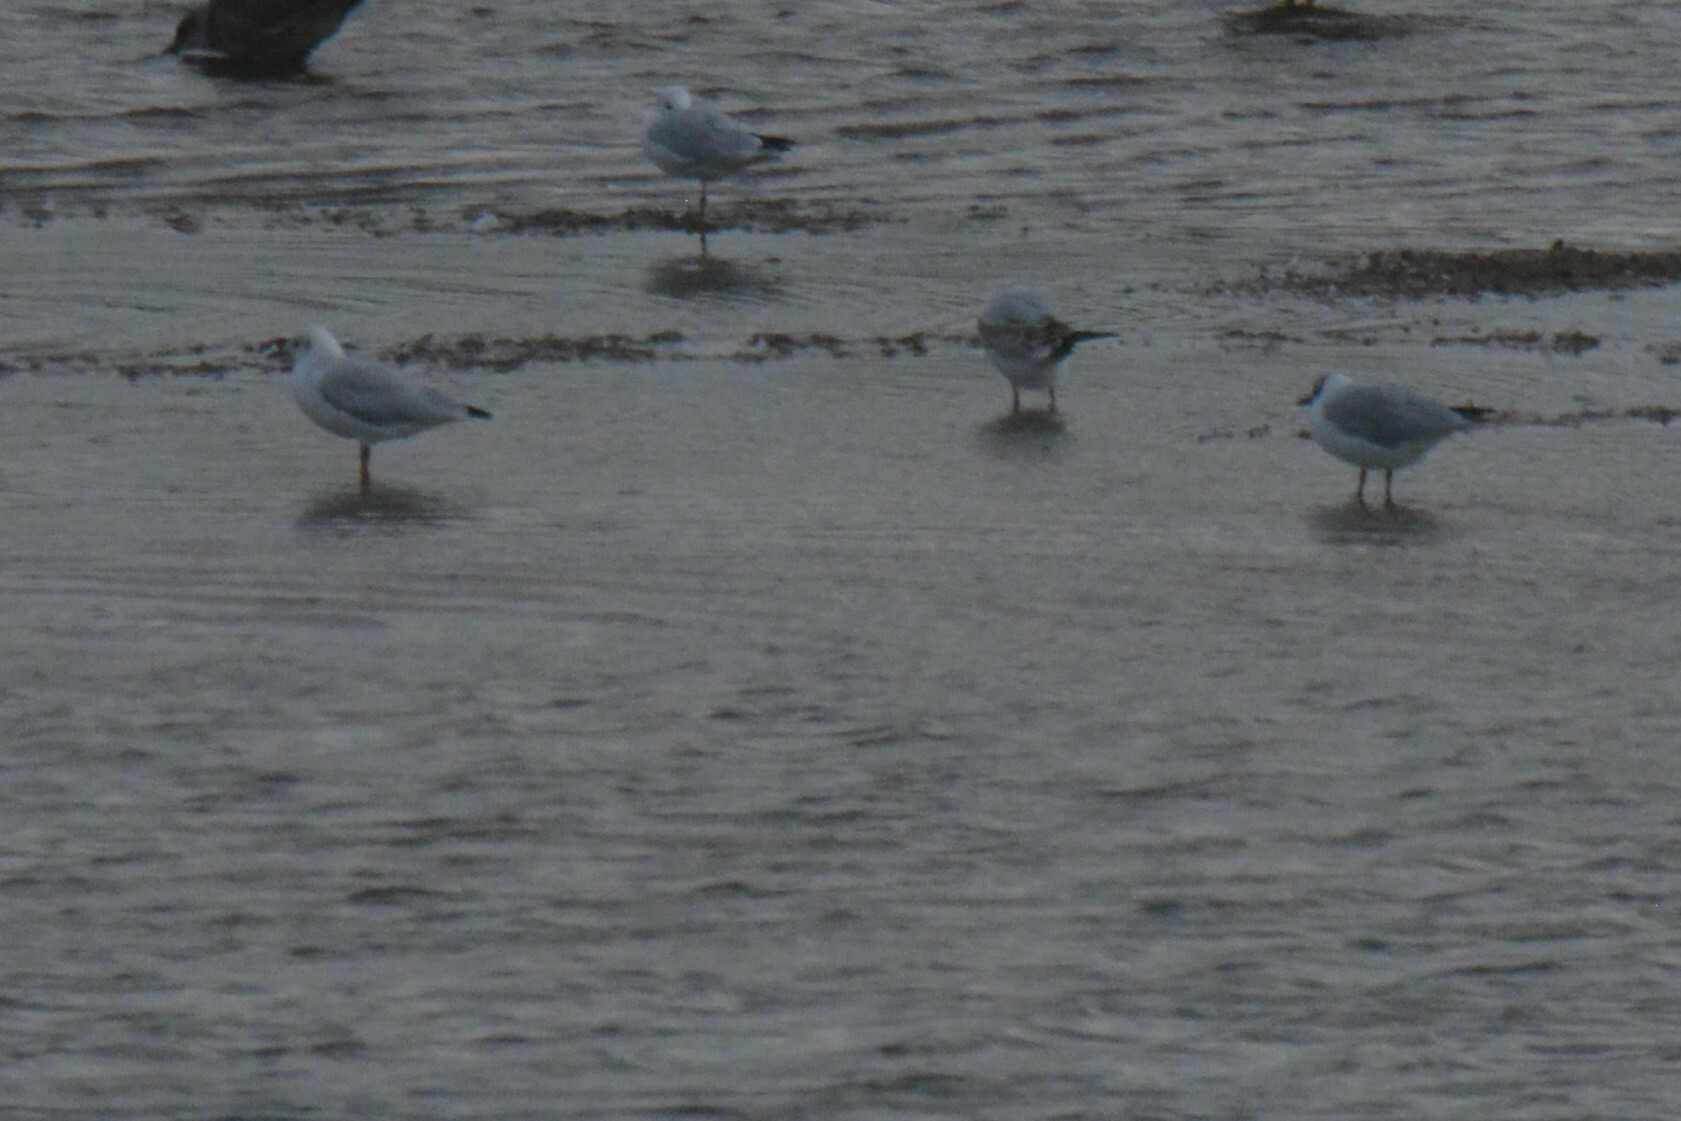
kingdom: Animalia
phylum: Chordata
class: Aves
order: Charadriiformes
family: Laridae
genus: Chroicocephalus
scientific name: Chroicocephalus ridibundus
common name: Black-headed gull
